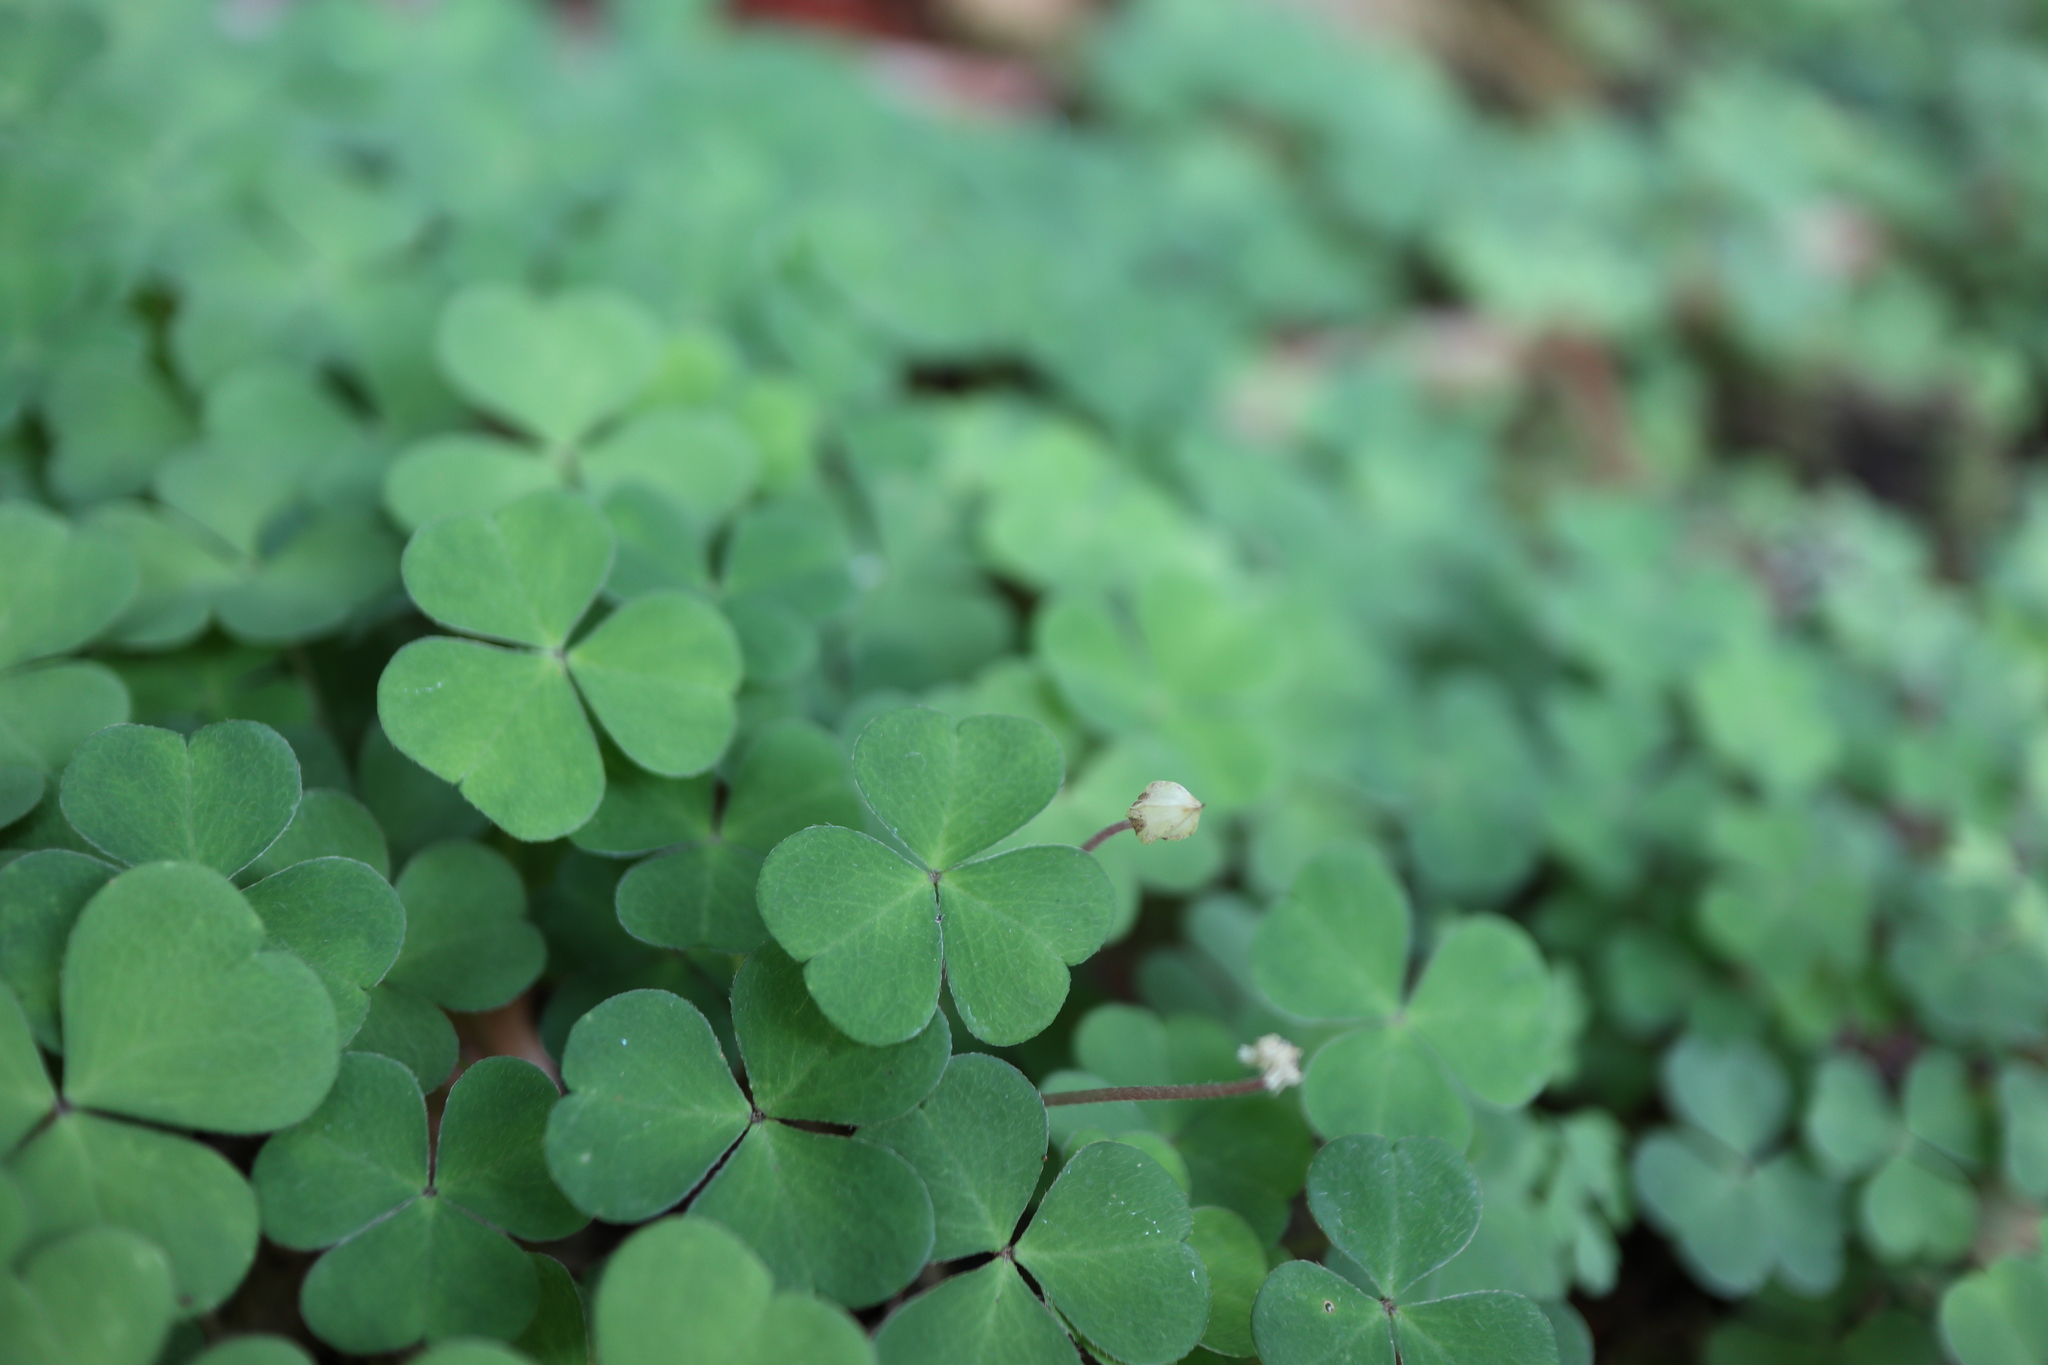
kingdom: Plantae
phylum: Tracheophyta
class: Magnoliopsida
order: Oxalidales
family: Oxalidaceae
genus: Oxalis
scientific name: Oxalis acetosella
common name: Wood-sorrel
